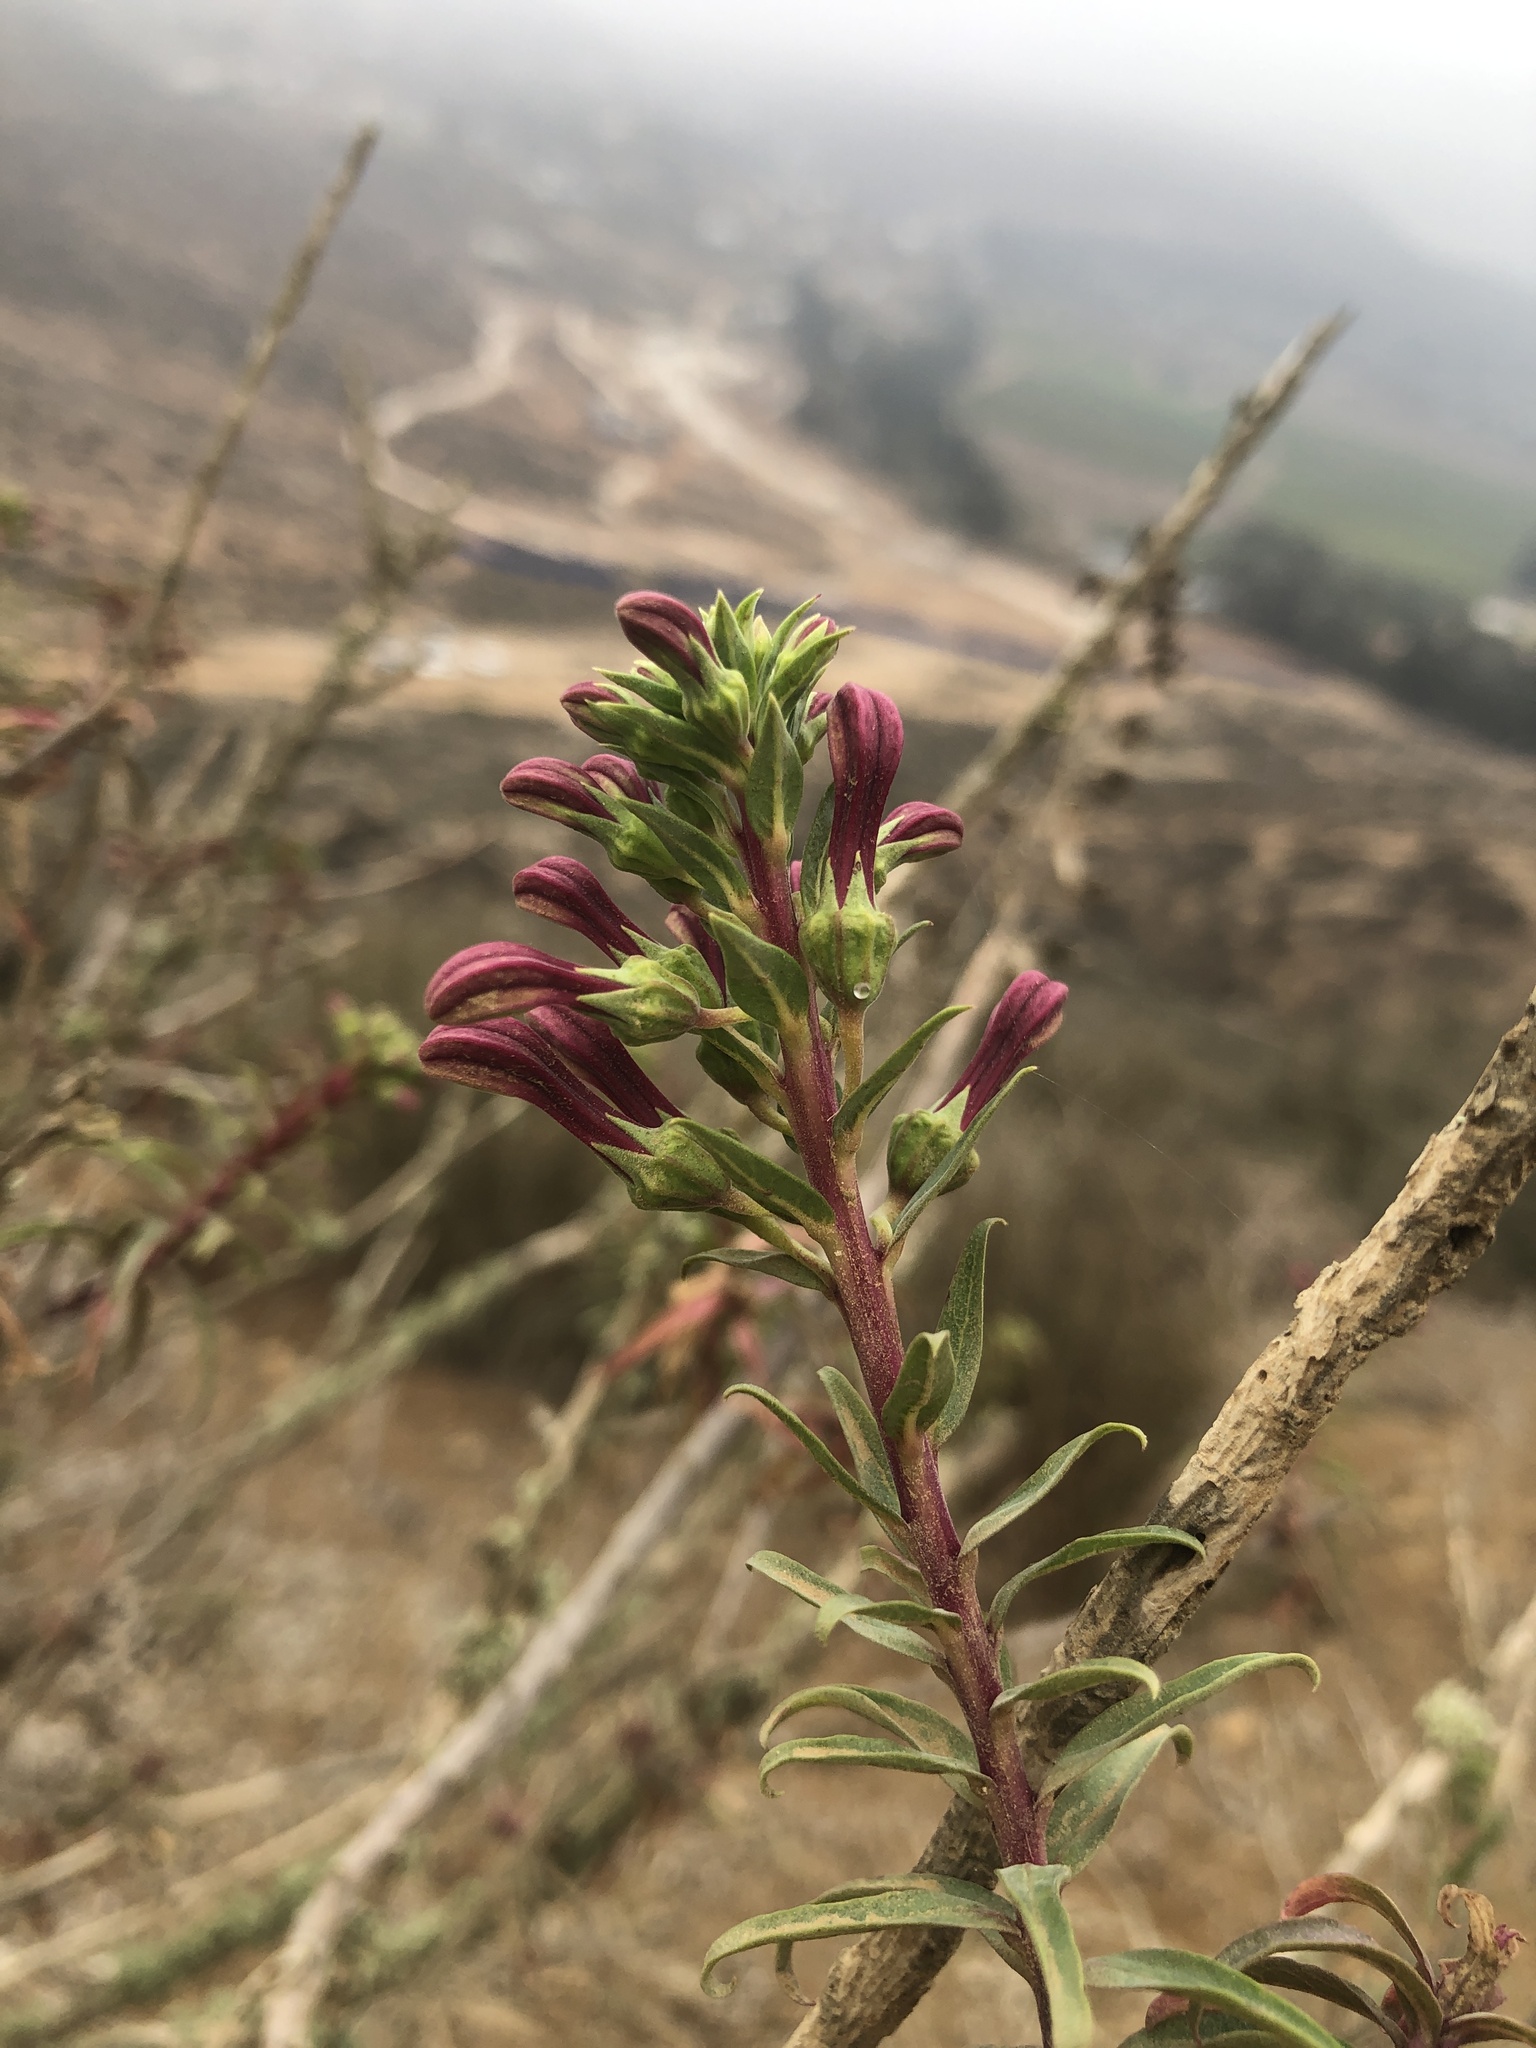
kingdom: Plantae
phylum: Tracheophyta
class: Magnoliopsida
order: Asterales
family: Campanulaceae
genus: Lobelia
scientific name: Lobelia polyphylla
